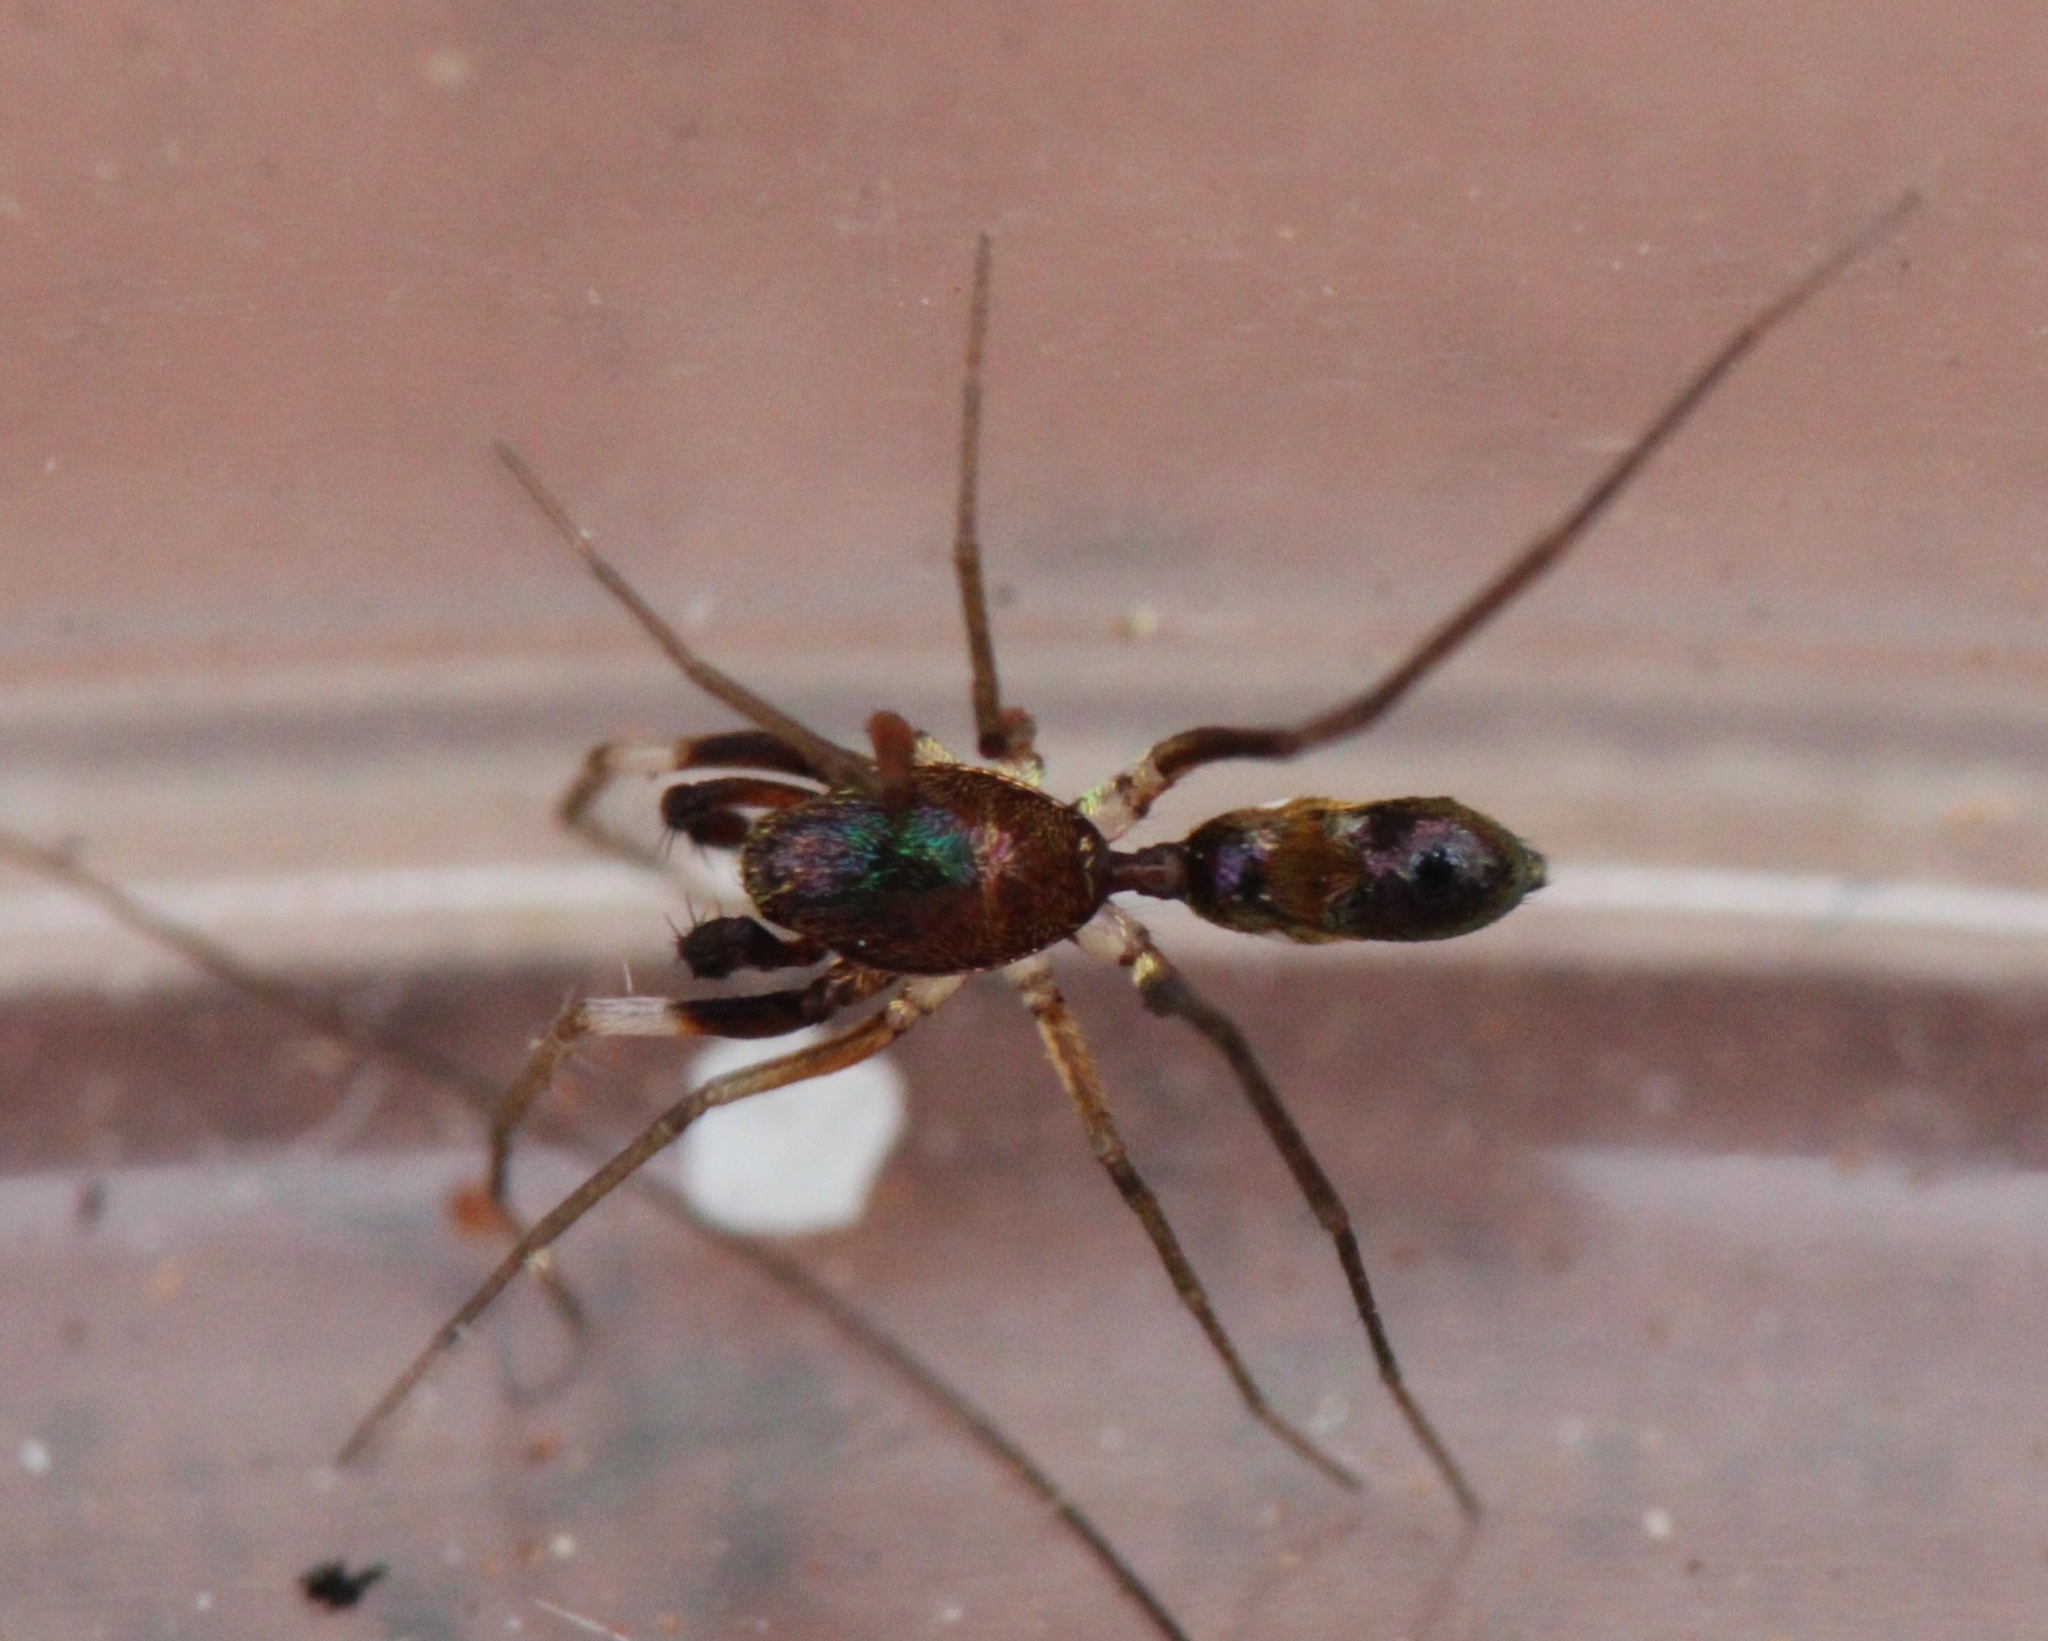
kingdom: Animalia
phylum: Arthropoda
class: Arachnida
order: Araneae
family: Gnaphosidae
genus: Micaria
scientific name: Micaria felix
